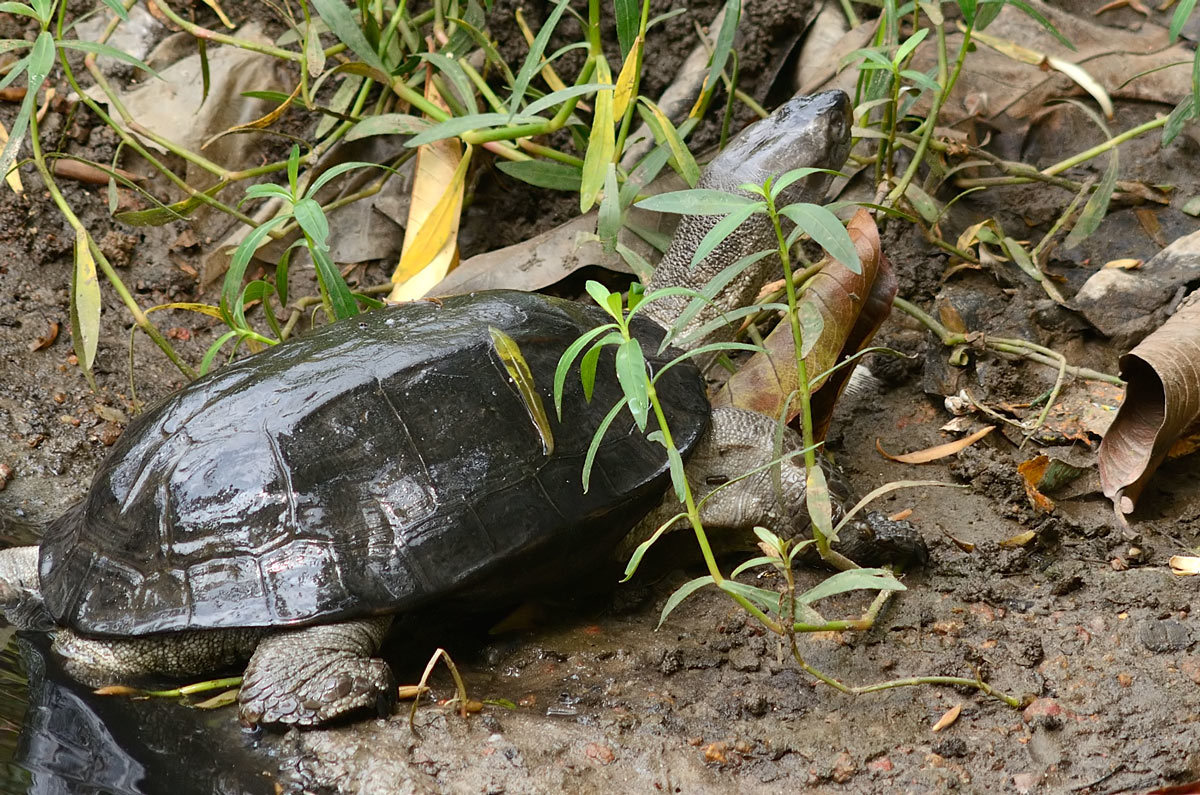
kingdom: Animalia
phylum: Chordata
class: Testudines
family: Geoemydidae
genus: Melanochelys
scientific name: Melanochelys trijuga
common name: Indian black turtle
